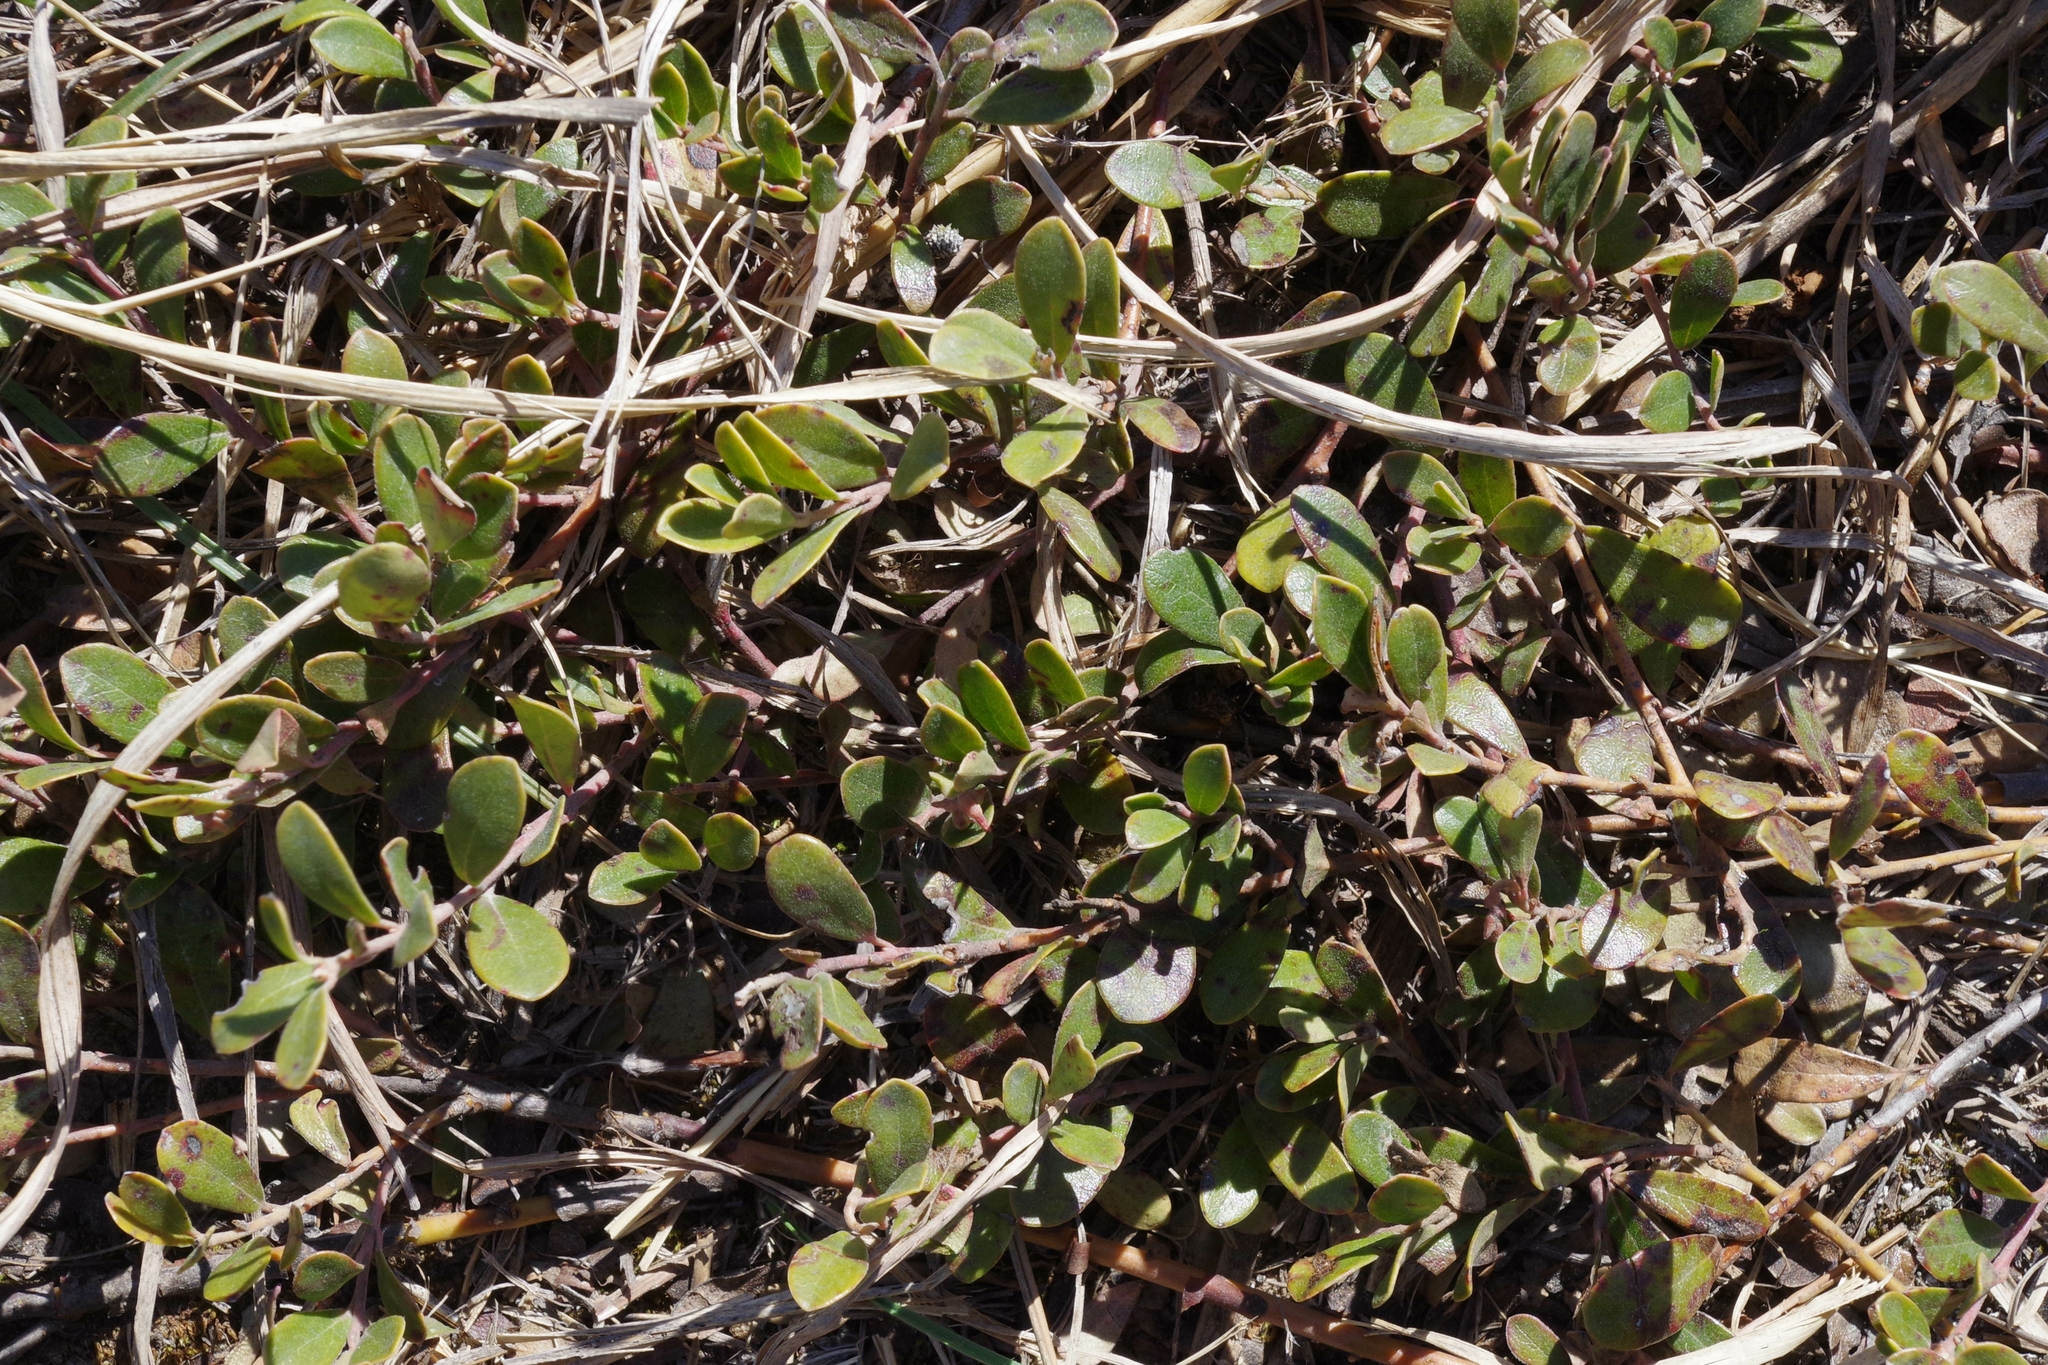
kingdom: Plantae
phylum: Tracheophyta
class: Magnoliopsida
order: Ericales
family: Ericaceae
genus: Arctostaphylos
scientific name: Arctostaphylos uva-ursi
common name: Bearberry
